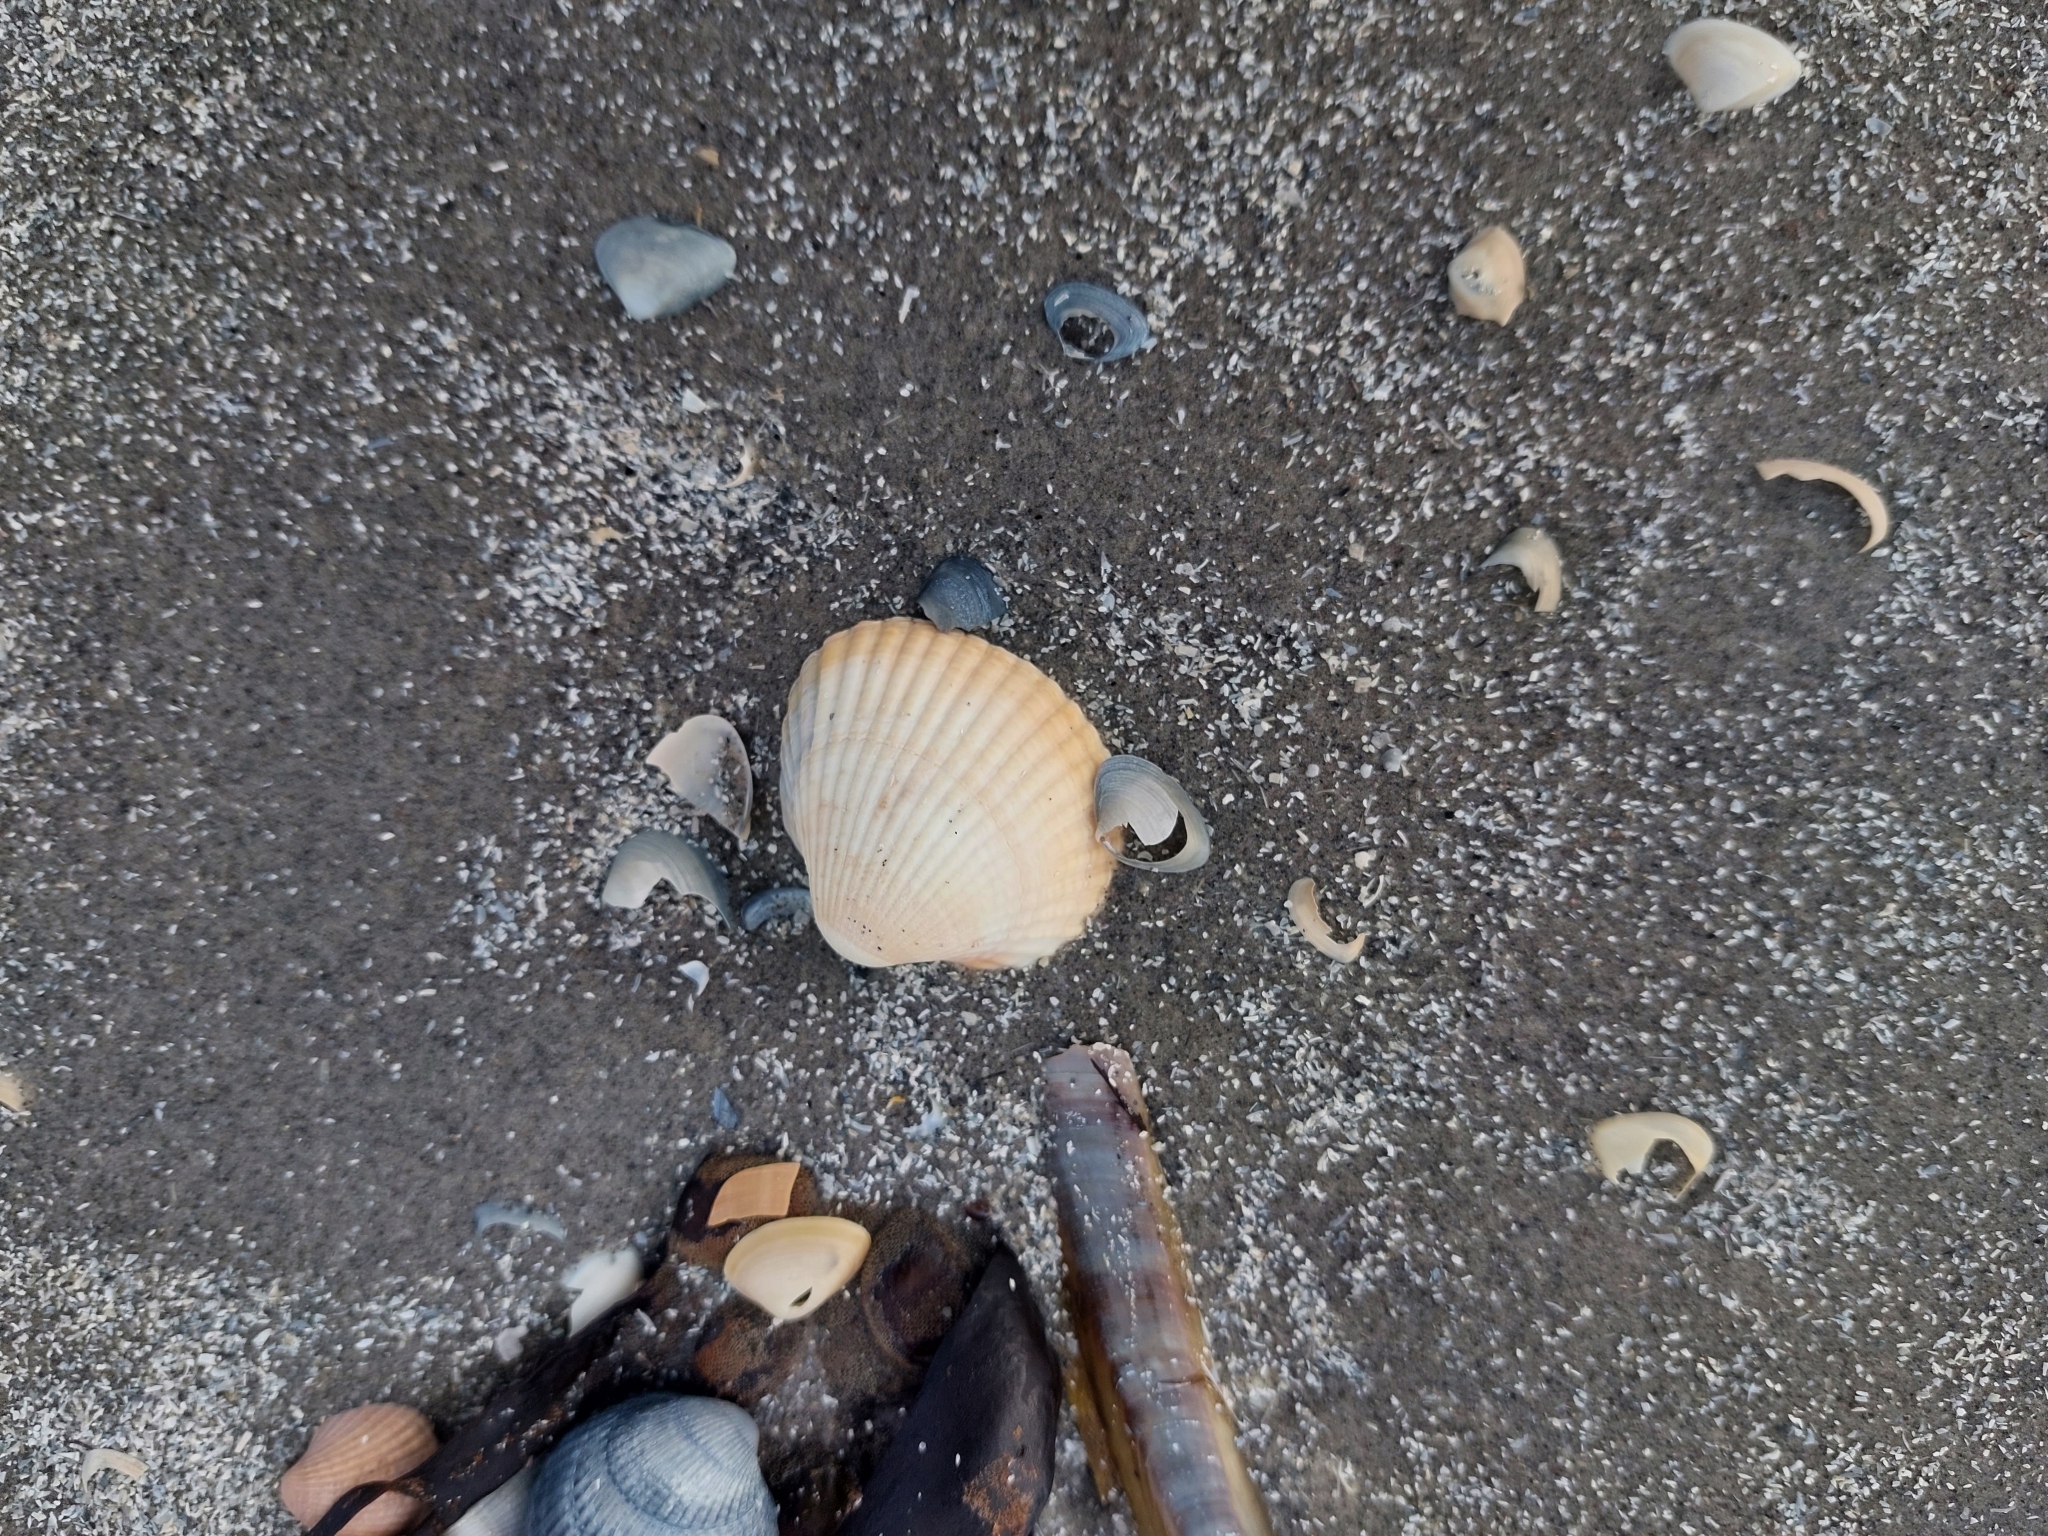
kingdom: Animalia
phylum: Mollusca
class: Bivalvia
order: Cardiida
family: Cardiidae
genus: Cerastoderma
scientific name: Cerastoderma edule
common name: Common cockle
